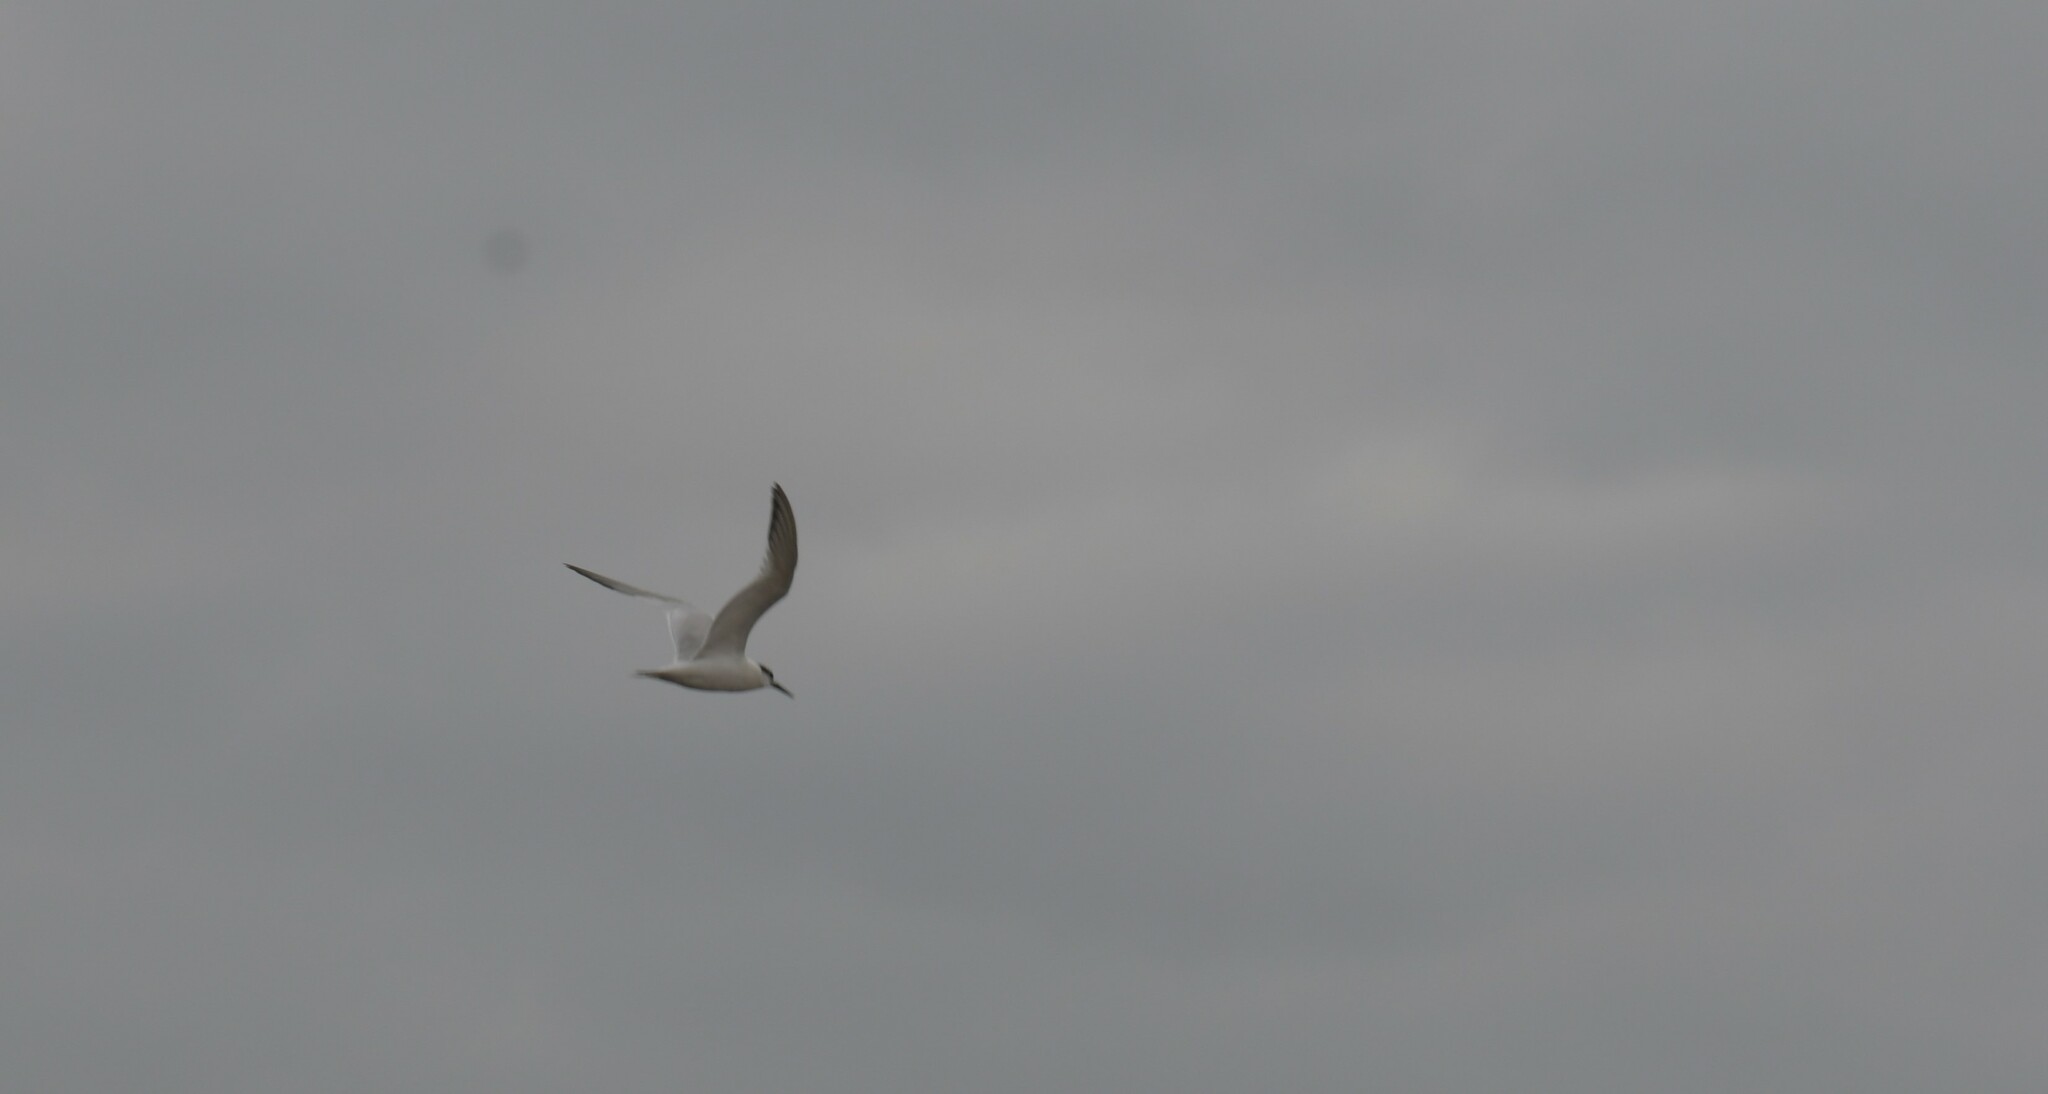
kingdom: Animalia
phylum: Chordata
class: Aves
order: Charadriiformes
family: Laridae
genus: Thalasseus
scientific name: Thalasseus sandvicensis
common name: Sandwich tern
